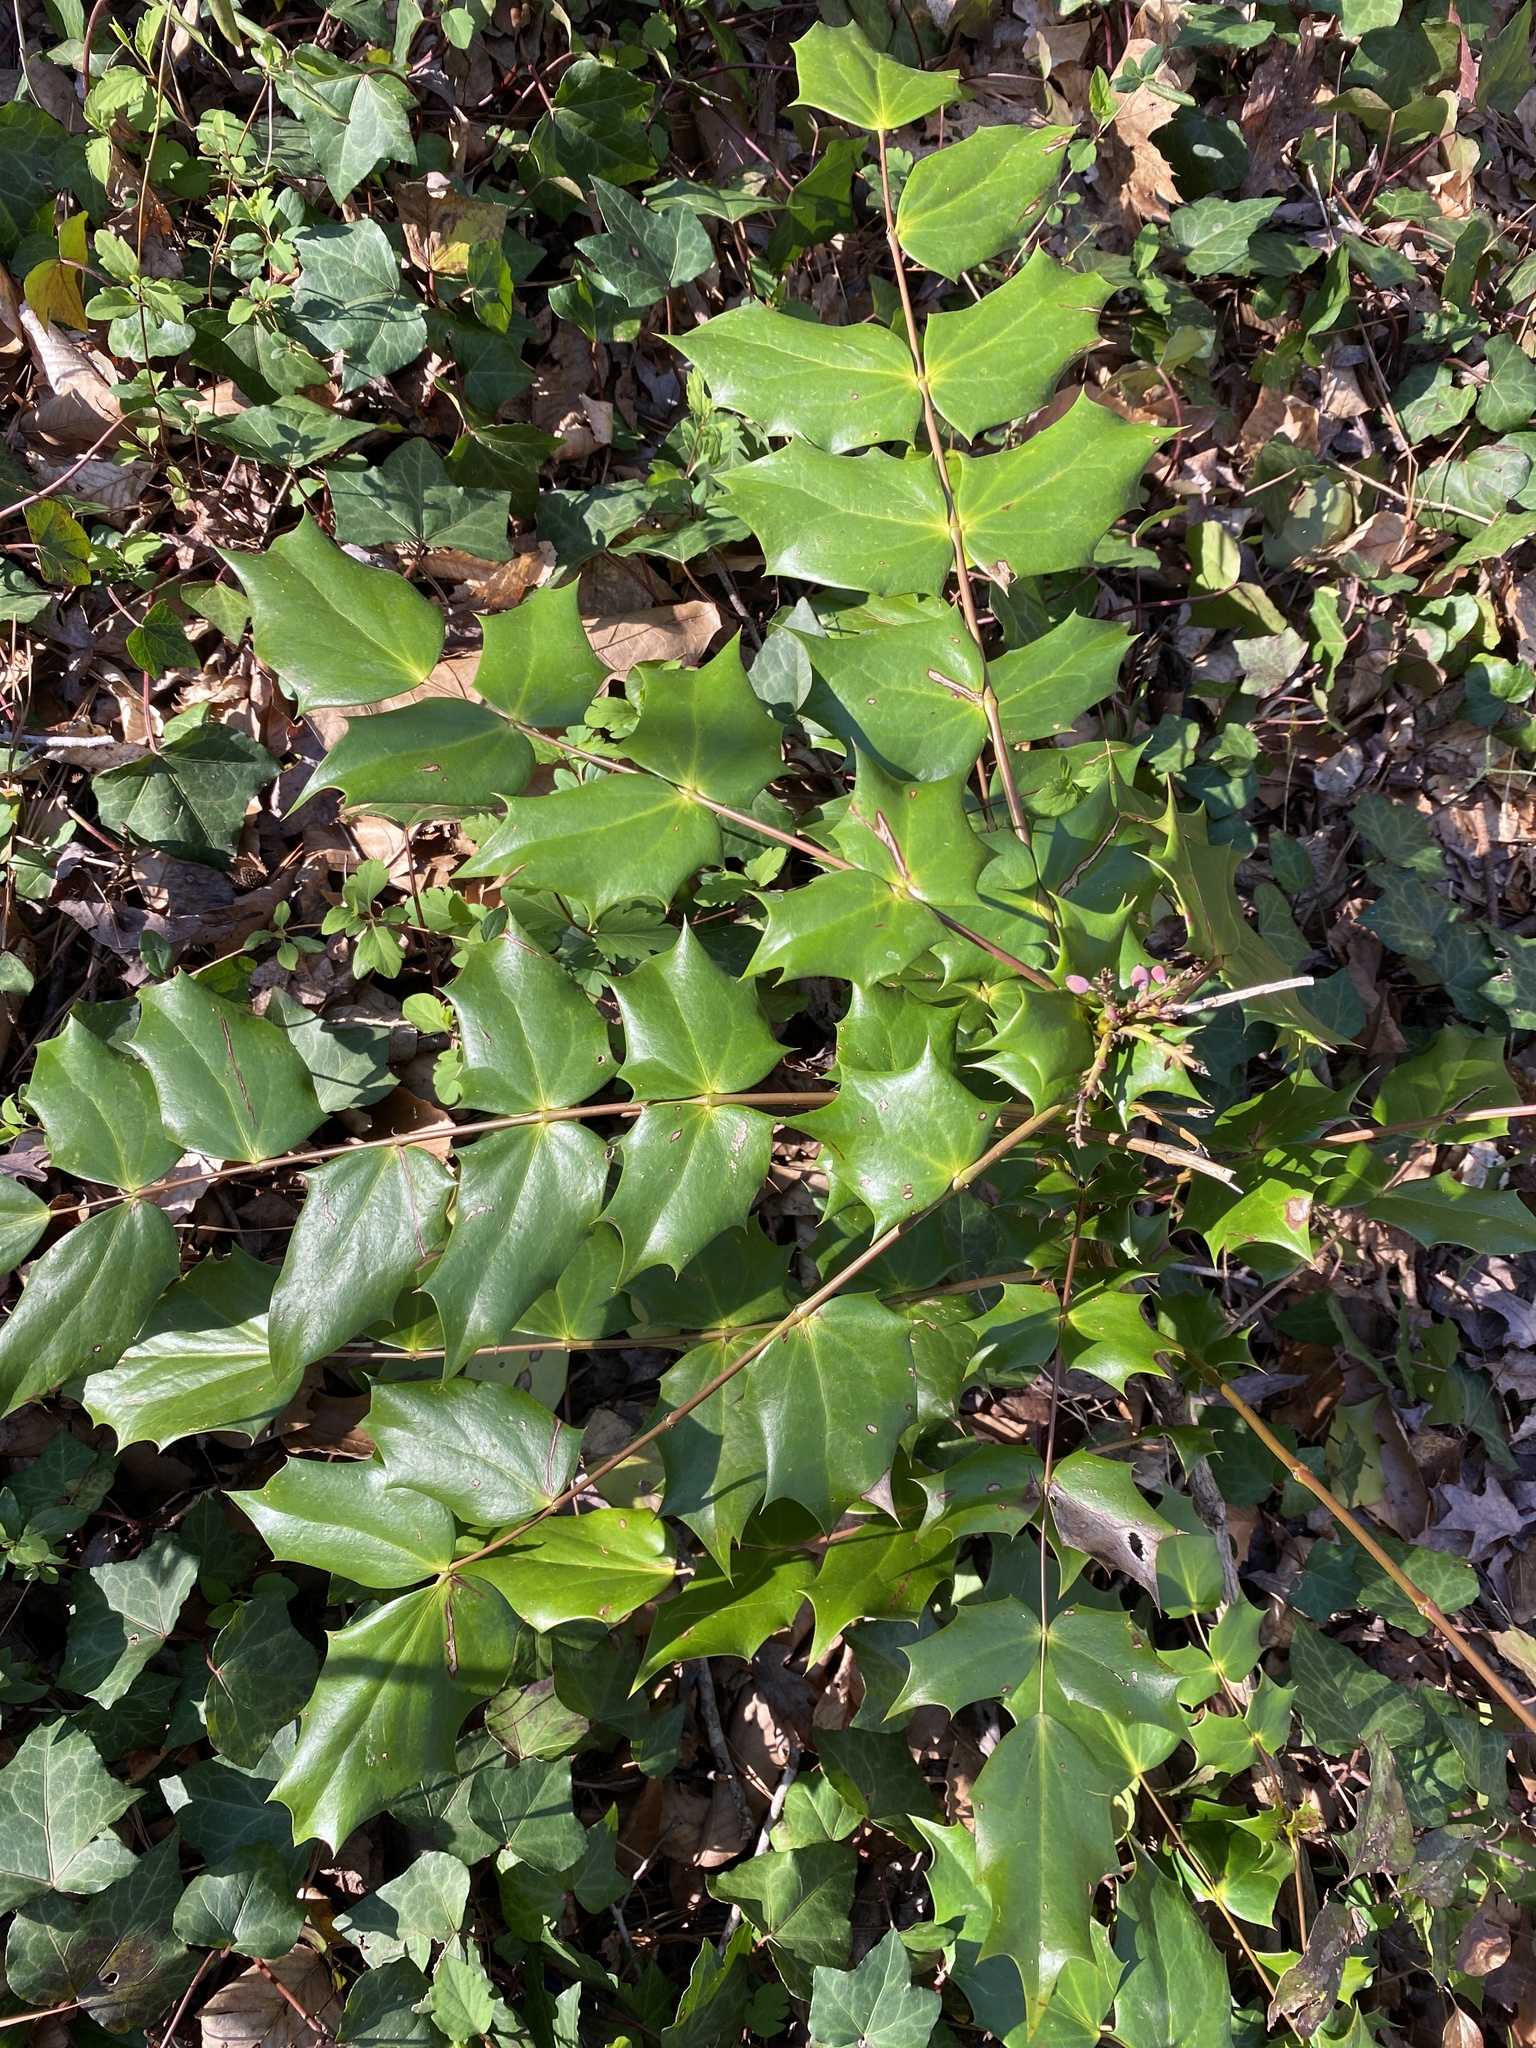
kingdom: Plantae
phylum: Tracheophyta
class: Magnoliopsida
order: Ranunculales
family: Berberidaceae
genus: Mahonia
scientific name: Mahonia bealei
